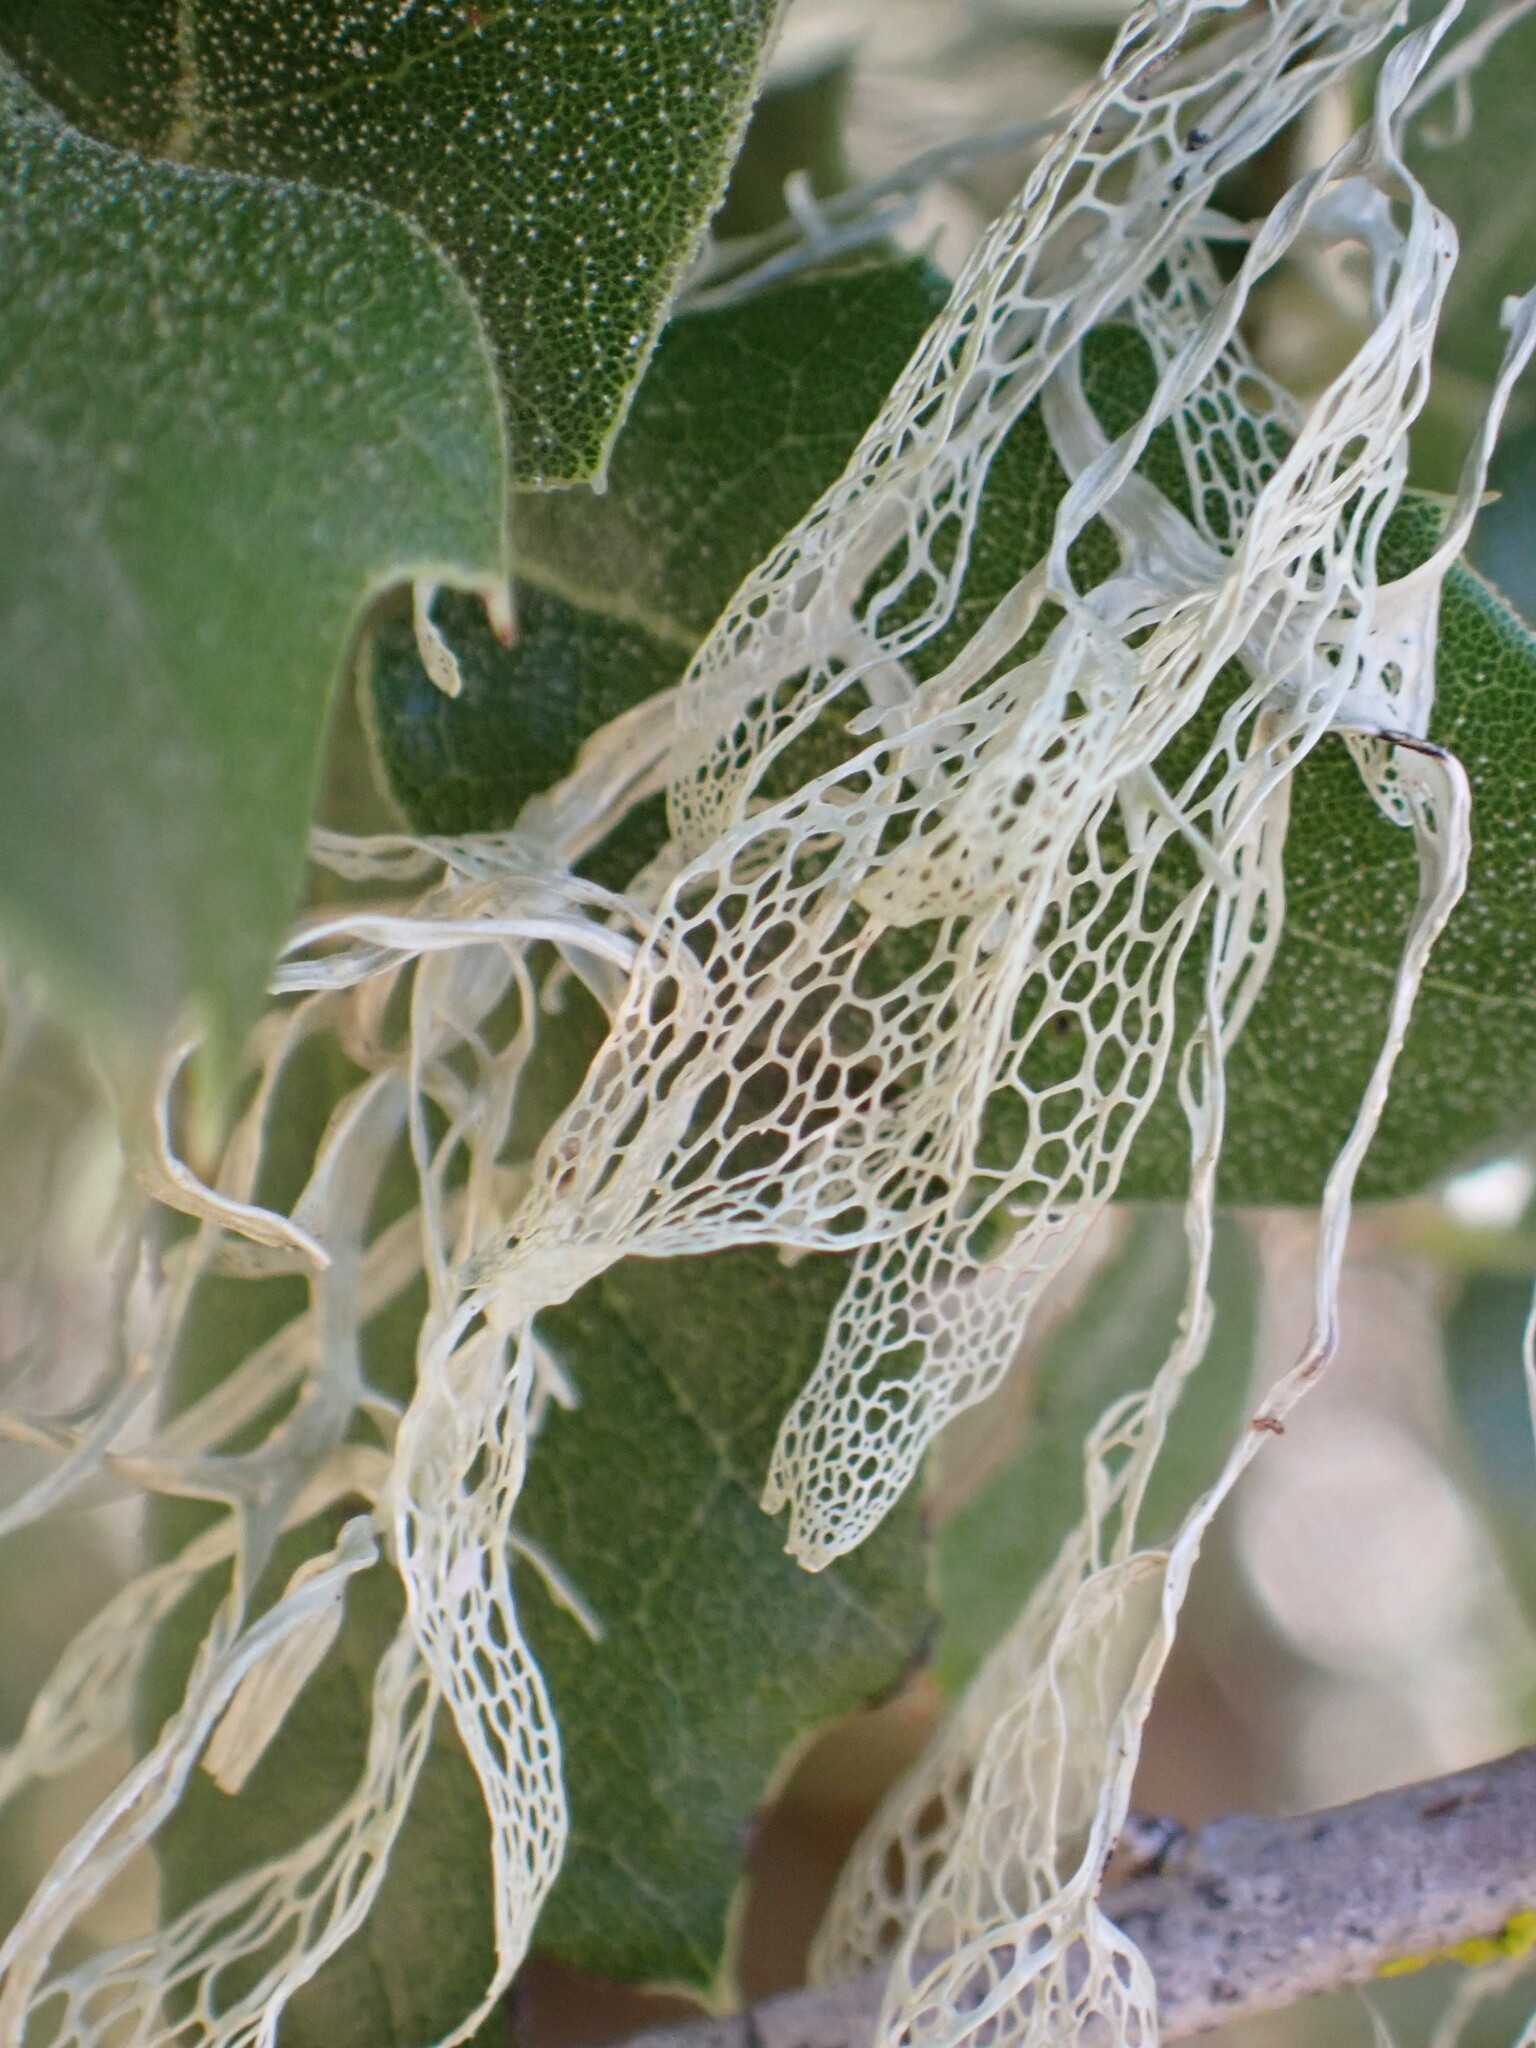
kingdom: Fungi
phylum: Ascomycota
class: Lecanoromycetes
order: Lecanorales
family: Ramalinaceae
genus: Ramalina
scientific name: Ramalina menziesii
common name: Lace lichen
